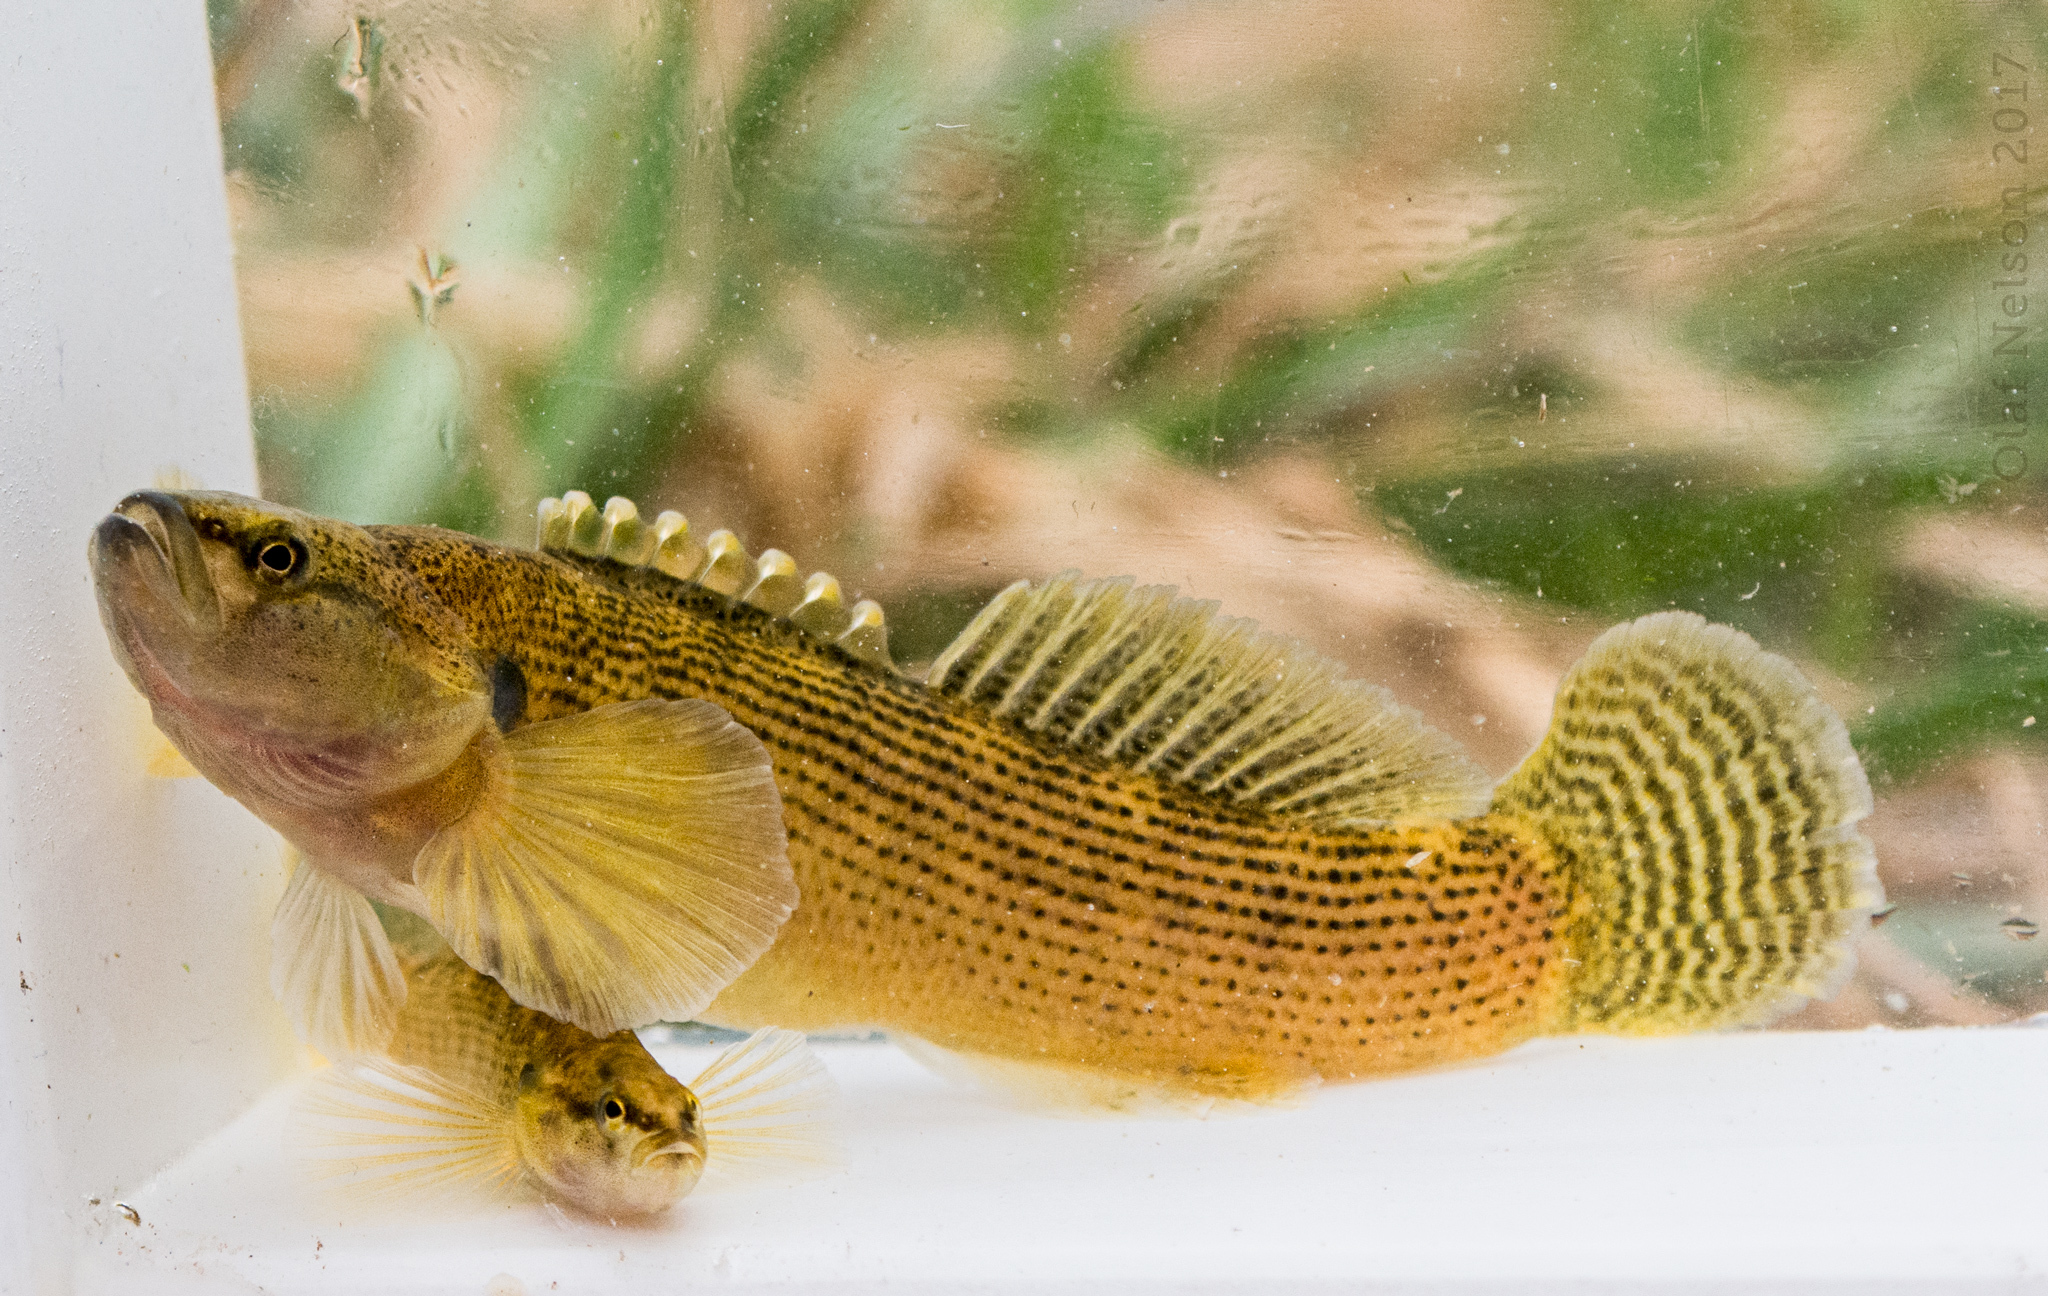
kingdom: Animalia
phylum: Chordata
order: Perciformes
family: Percidae
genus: Etheostoma
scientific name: Etheostoma flabellare
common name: Fantail darter
